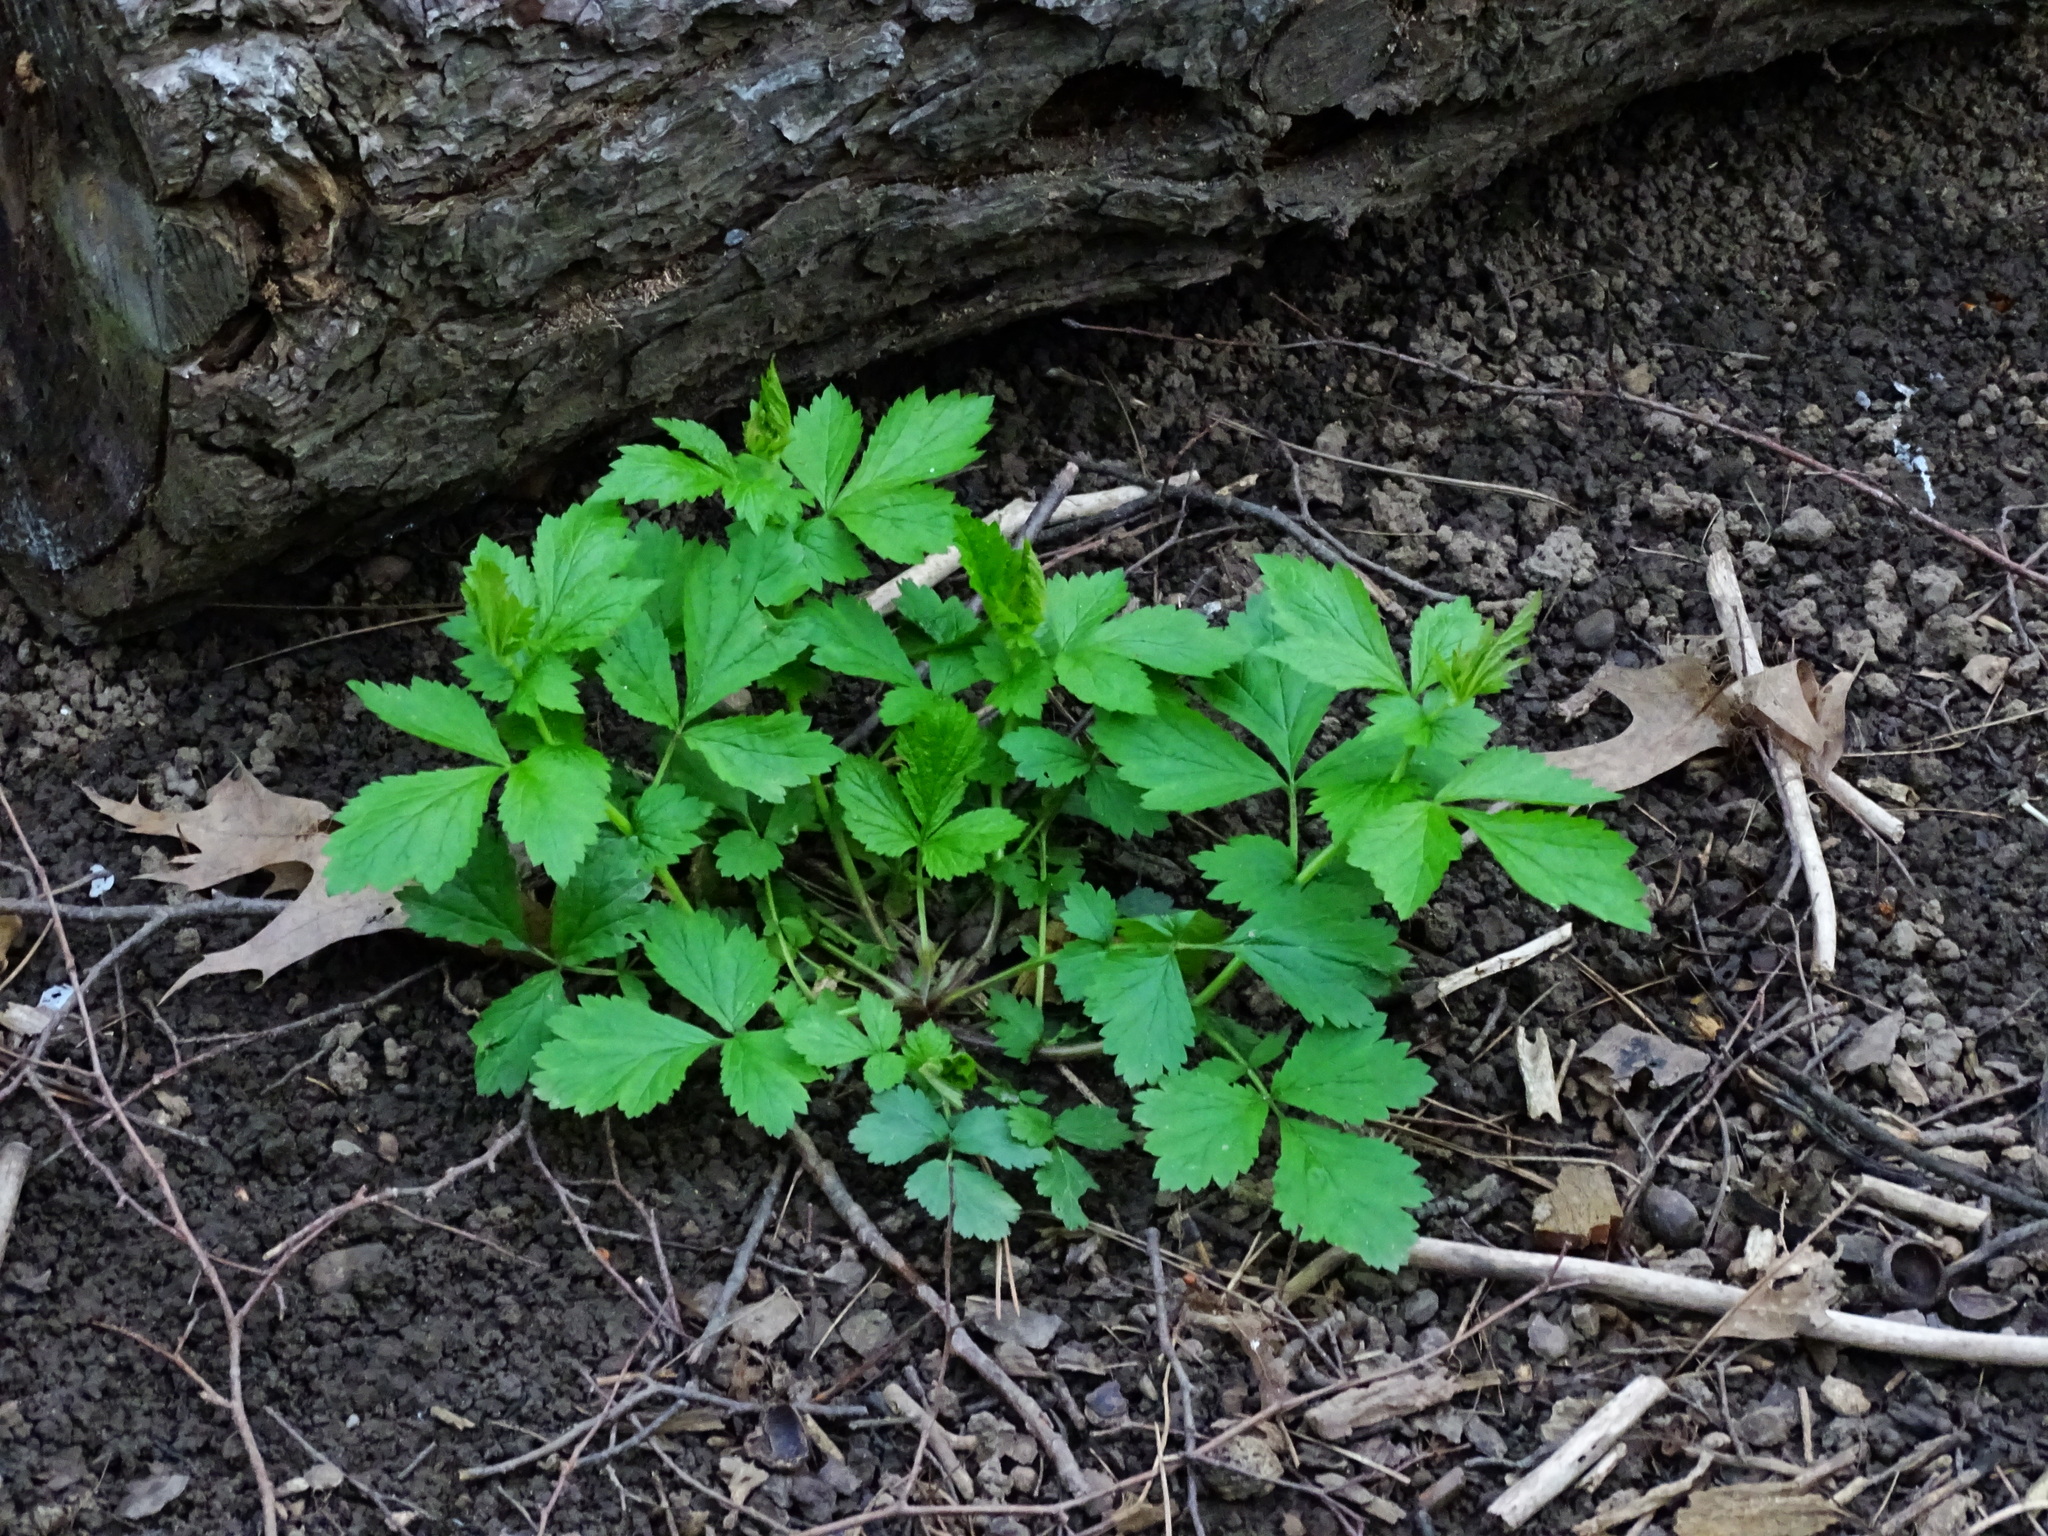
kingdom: Plantae
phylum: Tracheophyta
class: Magnoliopsida
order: Rosales
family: Rosaceae
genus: Geum
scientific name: Geum urbanum
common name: Wood avens
